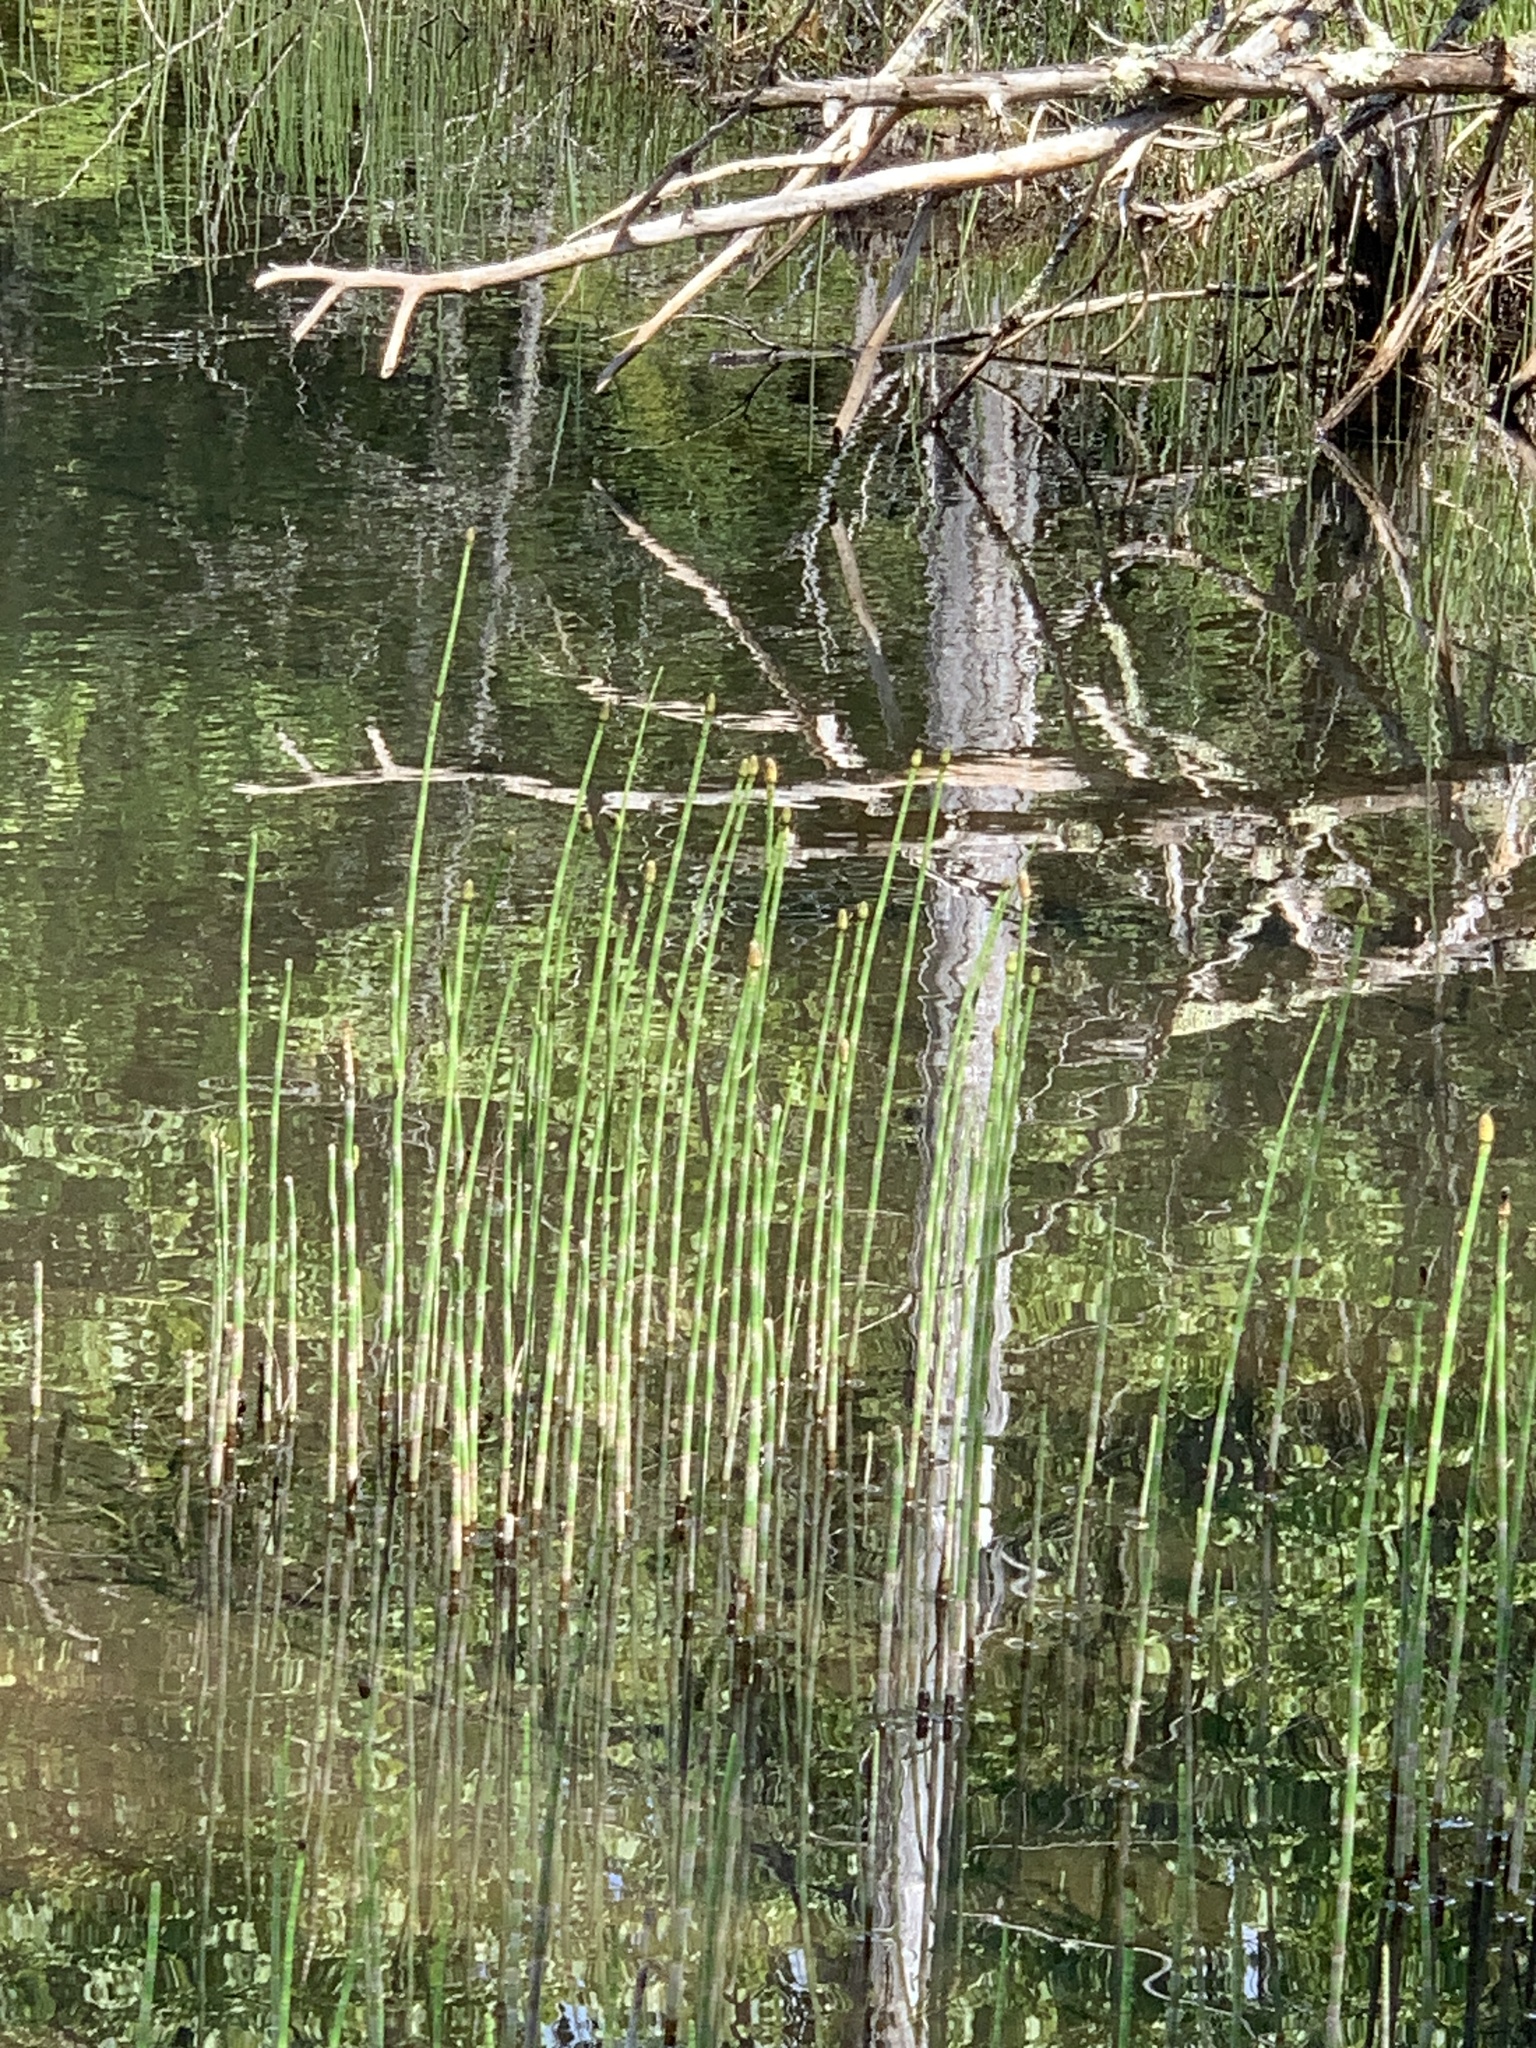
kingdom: Plantae
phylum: Tracheophyta
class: Polypodiopsida
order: Equisetales
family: Equisetaceae
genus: Equisetum
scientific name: Equisetum fluviatile
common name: Water horsetail
